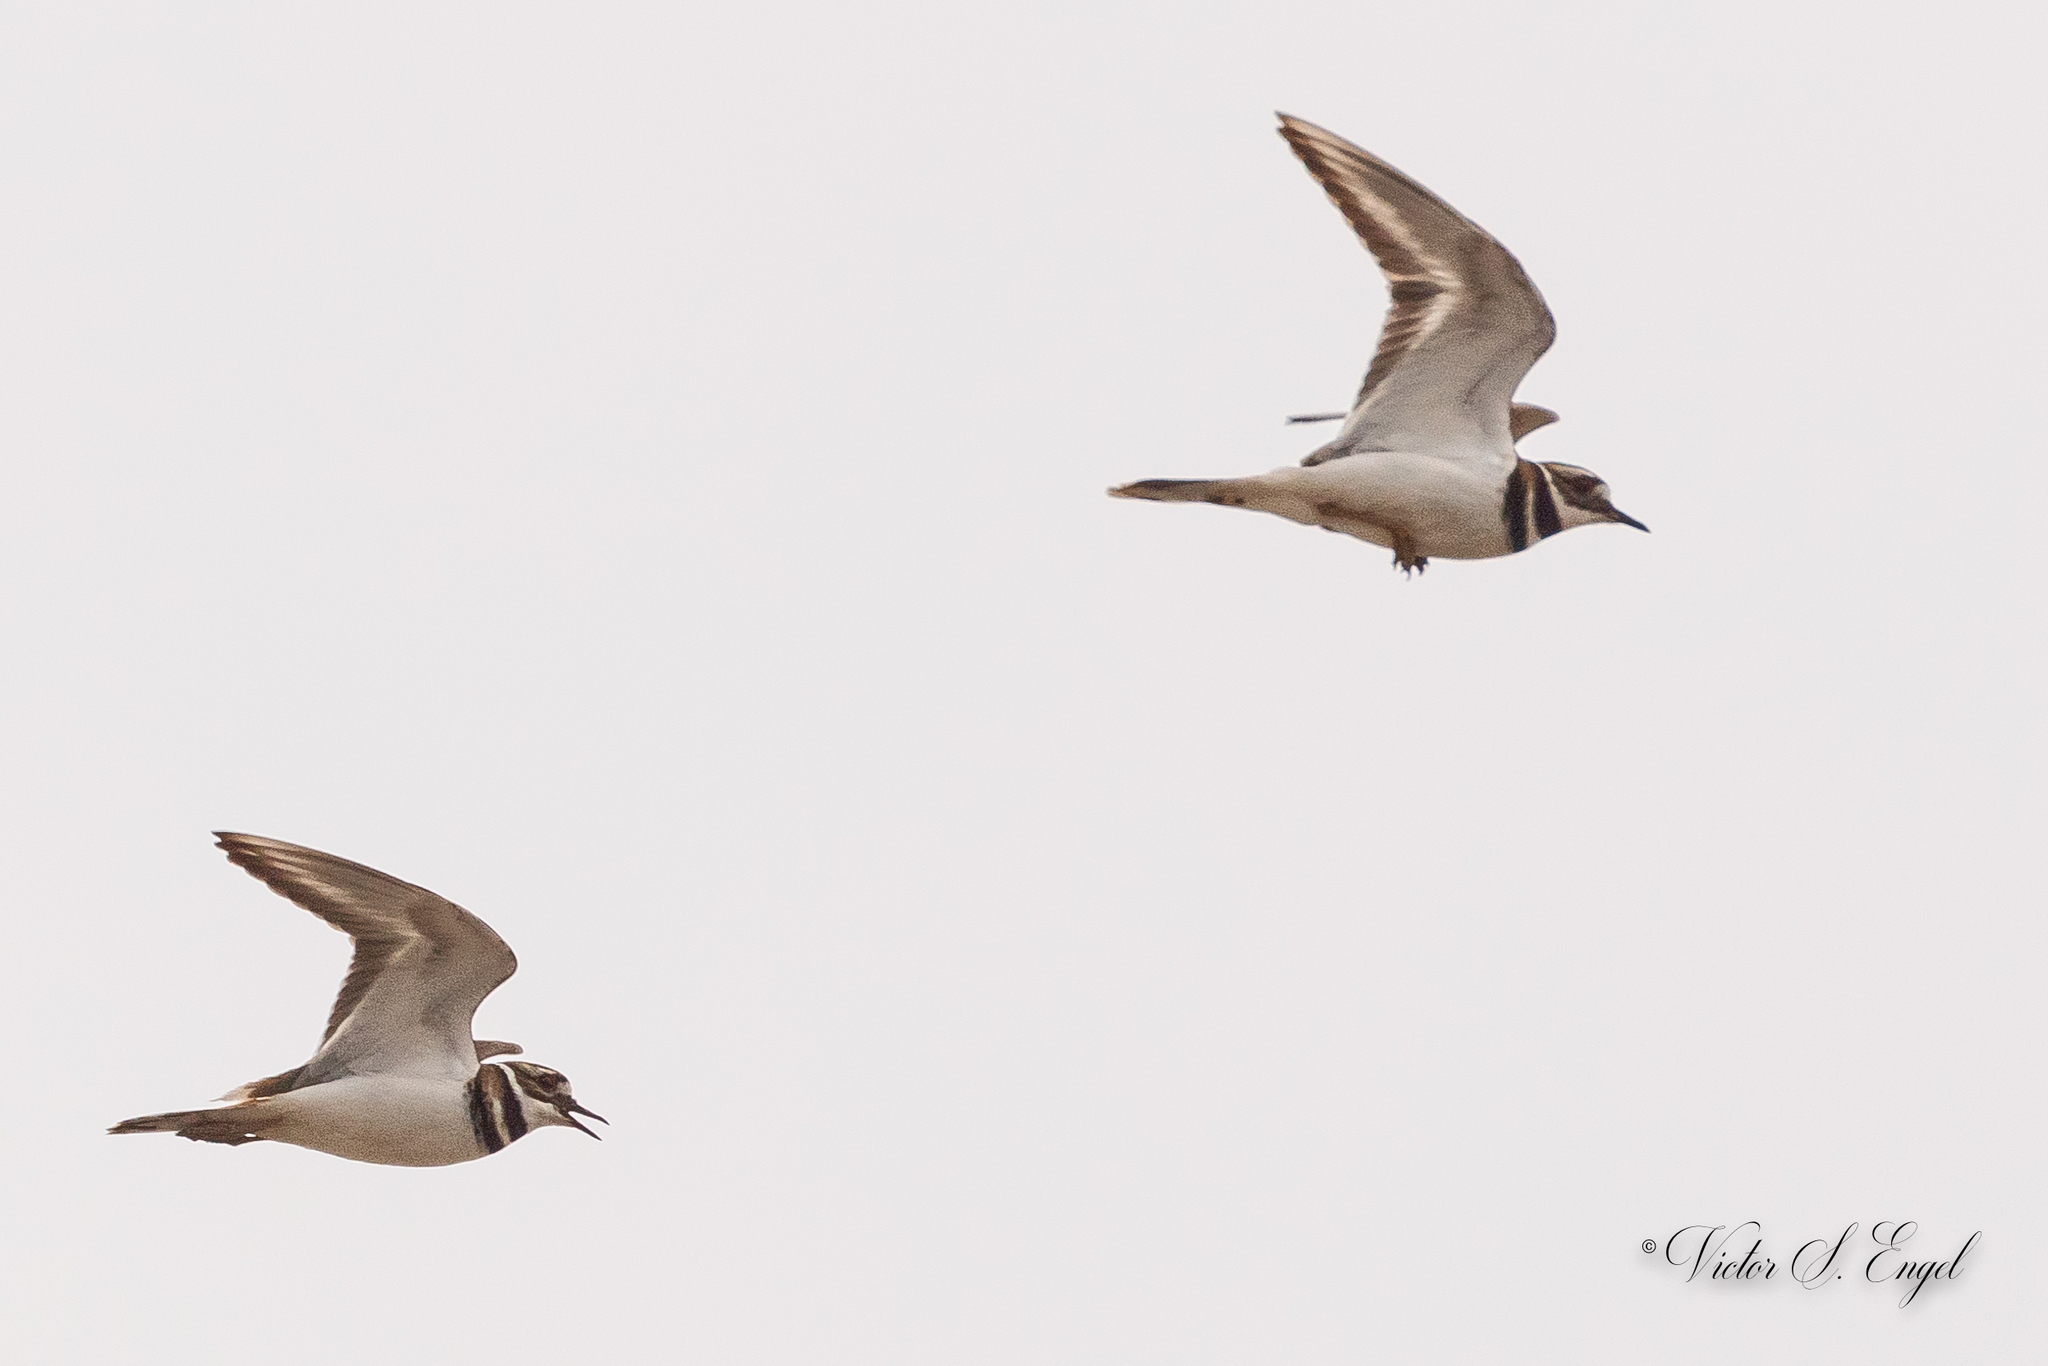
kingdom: Animalia
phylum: Chordata
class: Aves
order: Charadriiformes
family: Charadriidae
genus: Charadrius
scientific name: Charadrius vociferus
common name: Killdeer
